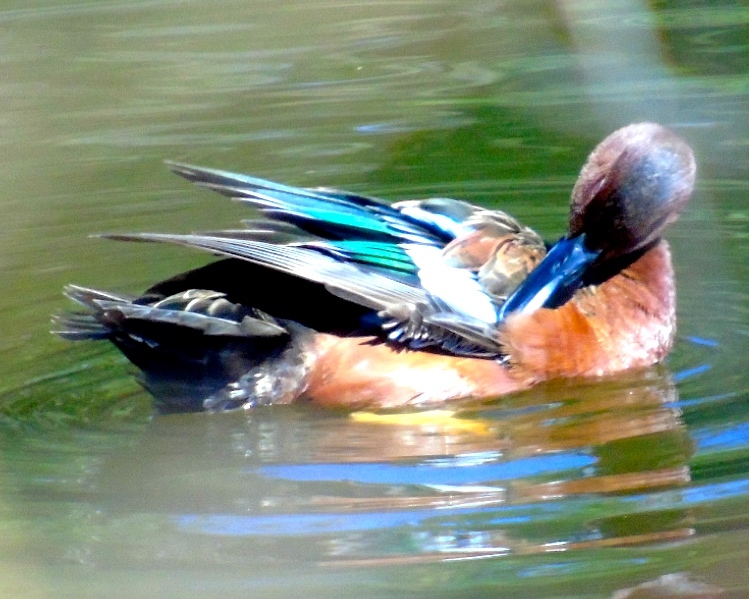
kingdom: Animalia
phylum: Chordata
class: Aves
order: Anseriformes
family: Anatidae
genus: Spatula
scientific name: Spatula cyanoptera
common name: Cinnamon teal
